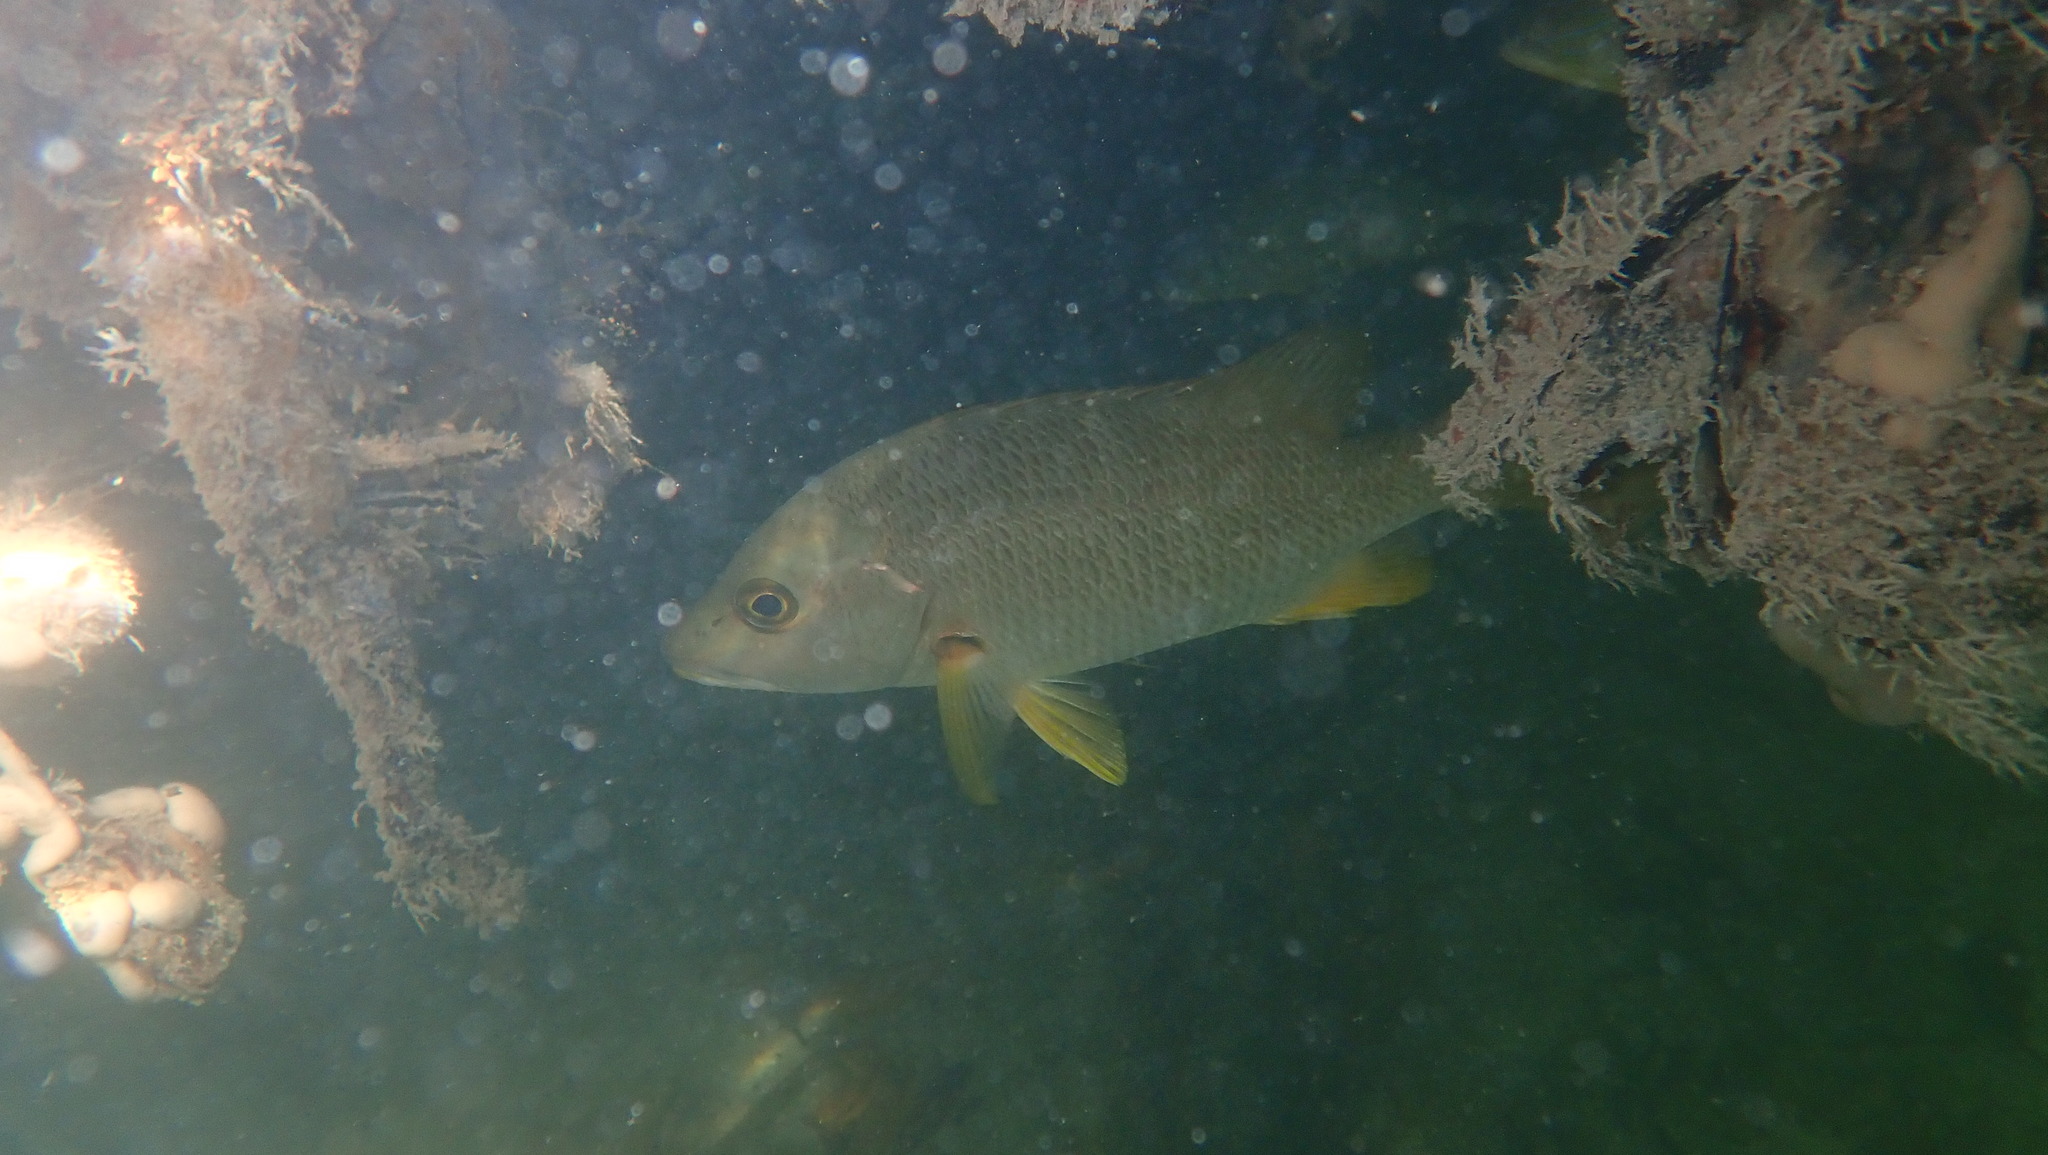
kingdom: Animalia
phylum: Chordata
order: Perciformes
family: Lutjanidae
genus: Lutjanus
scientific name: Lutjanus apodus
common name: Schoolmaster
